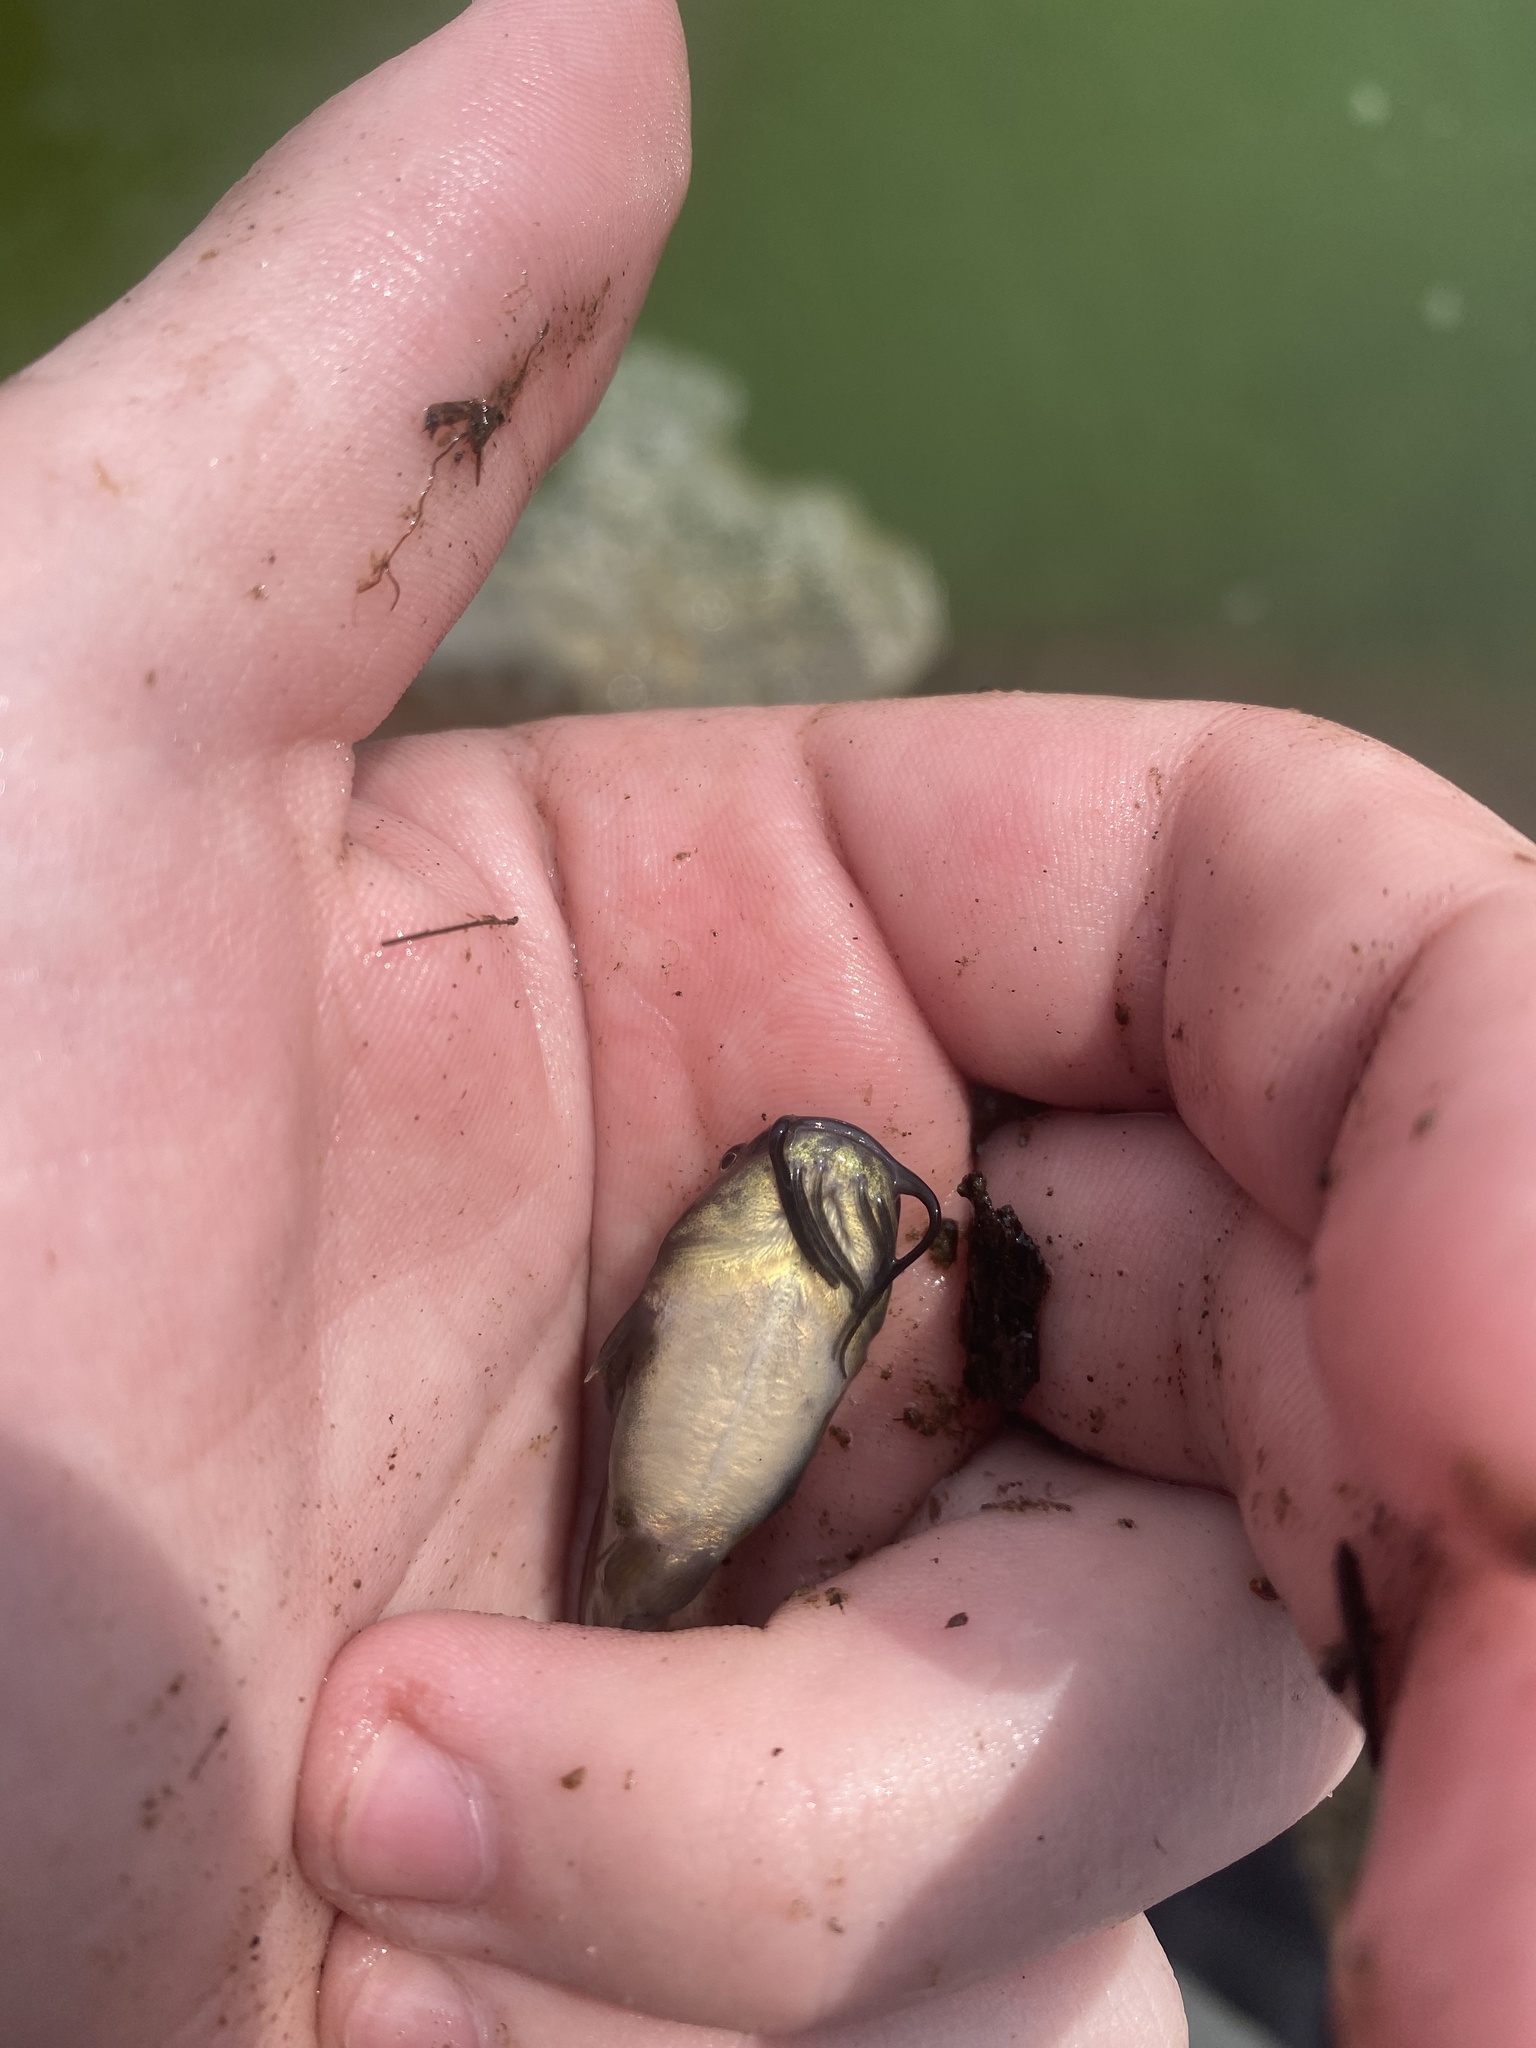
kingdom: Animalia
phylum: Chordata
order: Siluriformes
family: Ictaluridae
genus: Ameiurus
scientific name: Ameiurus melas
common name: Black bullhead
